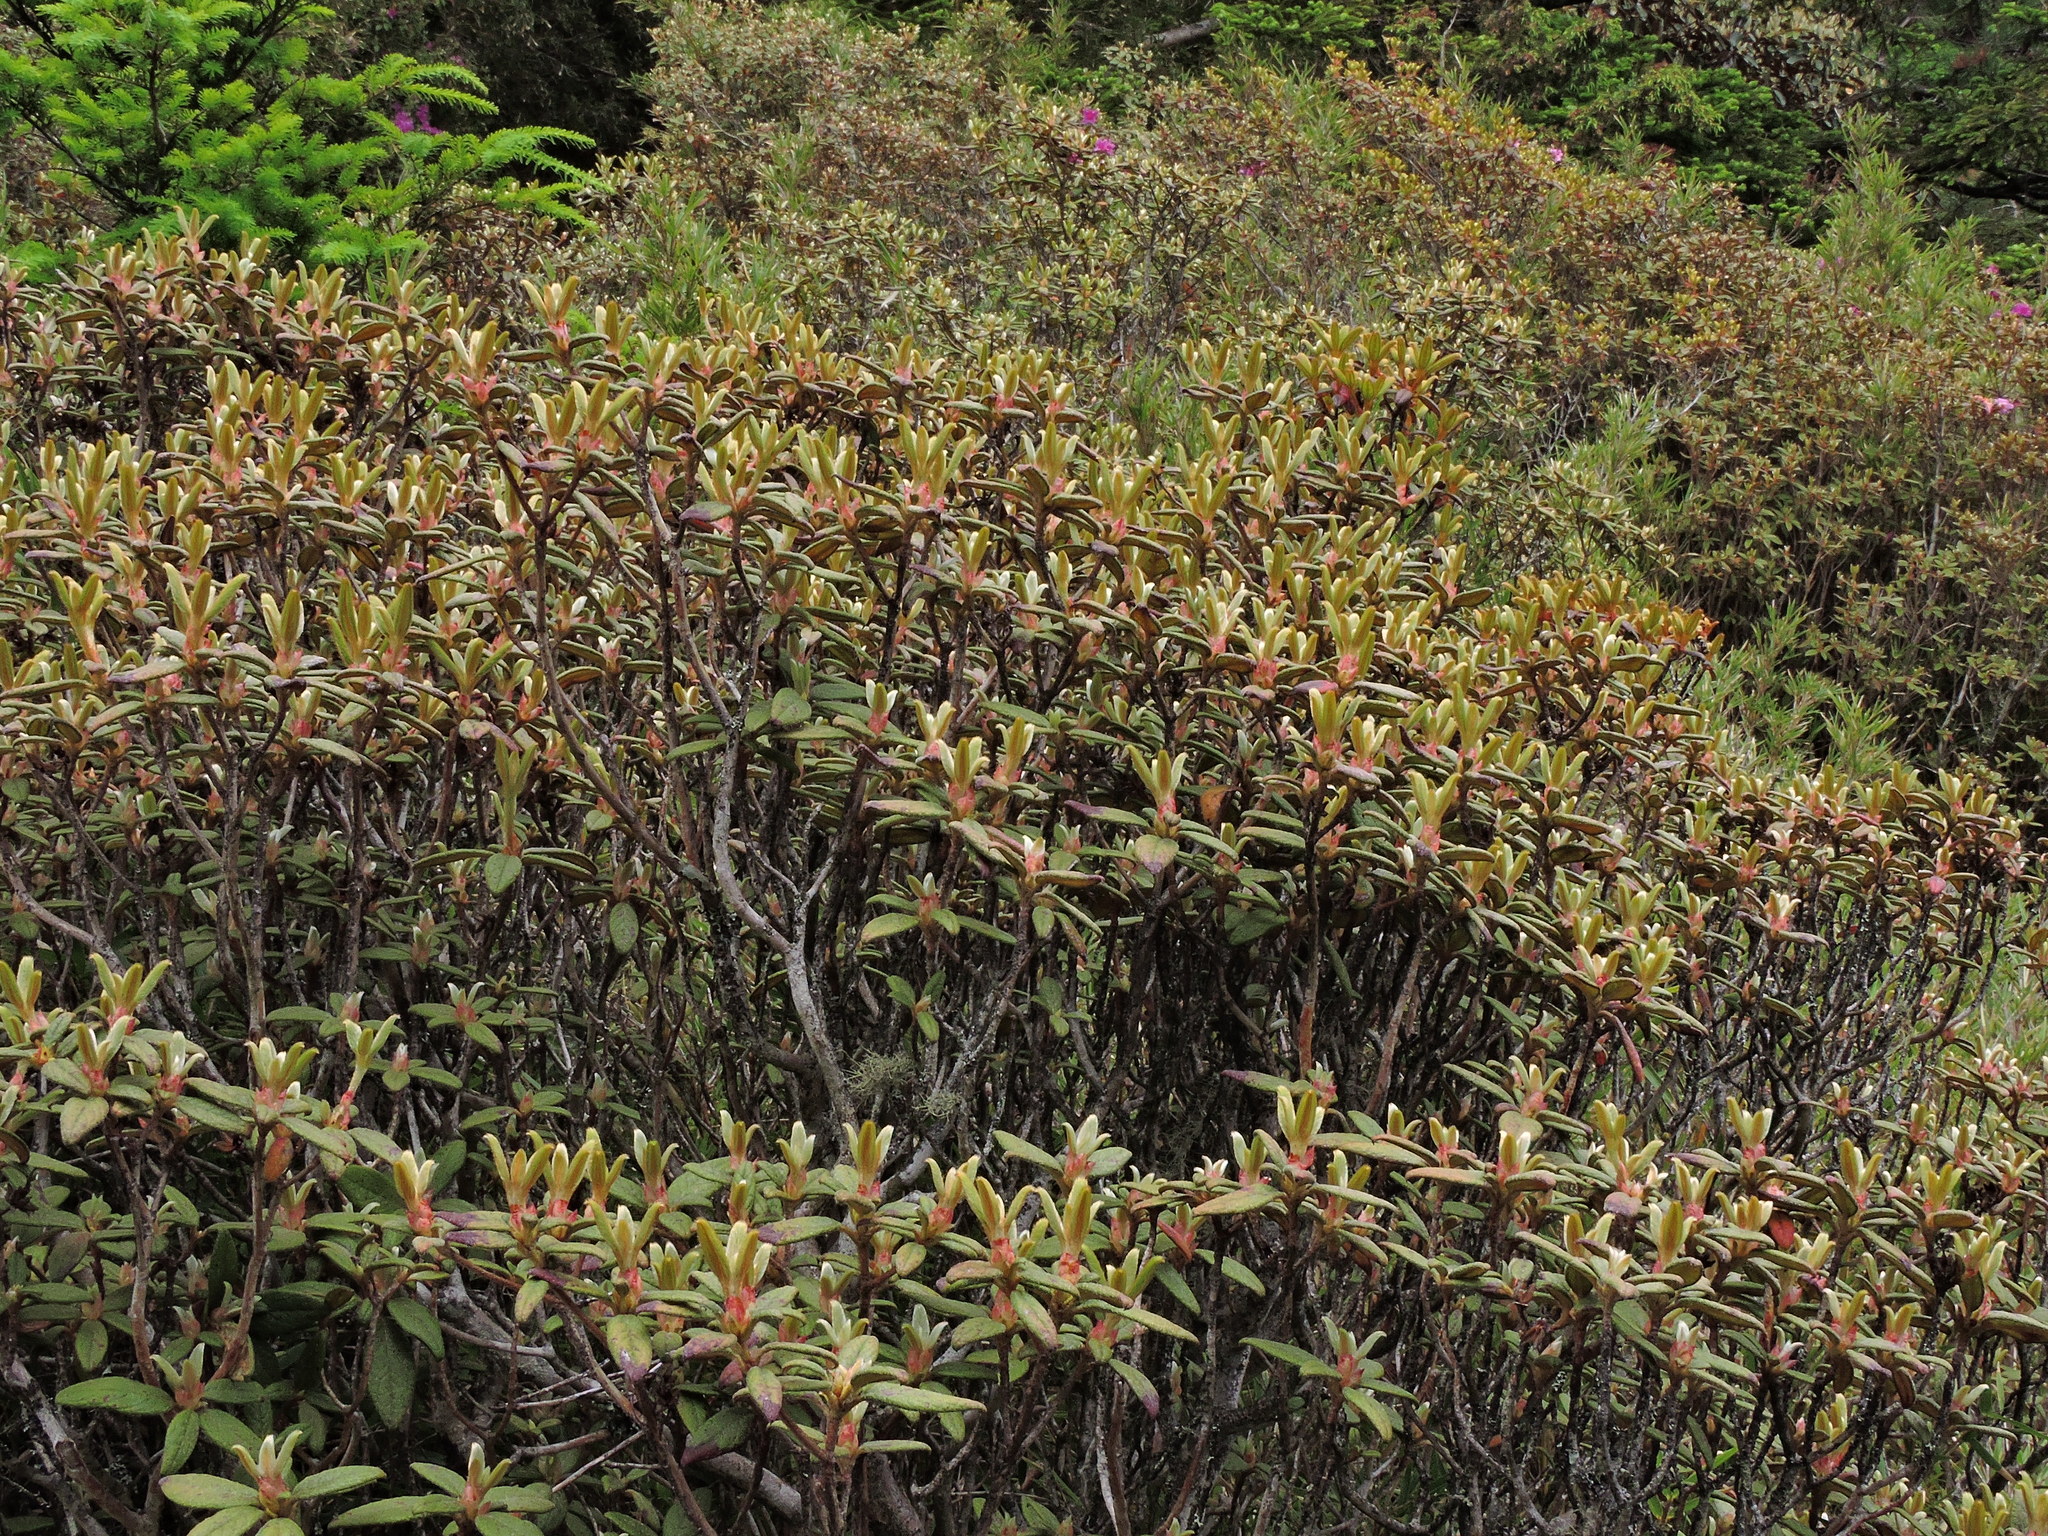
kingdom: Plantae
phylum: Tracheophyta
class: Magnoliopsida
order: Ericales
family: Ericaceae
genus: Rhododendron
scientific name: Rhododendron taiwanalpinum
